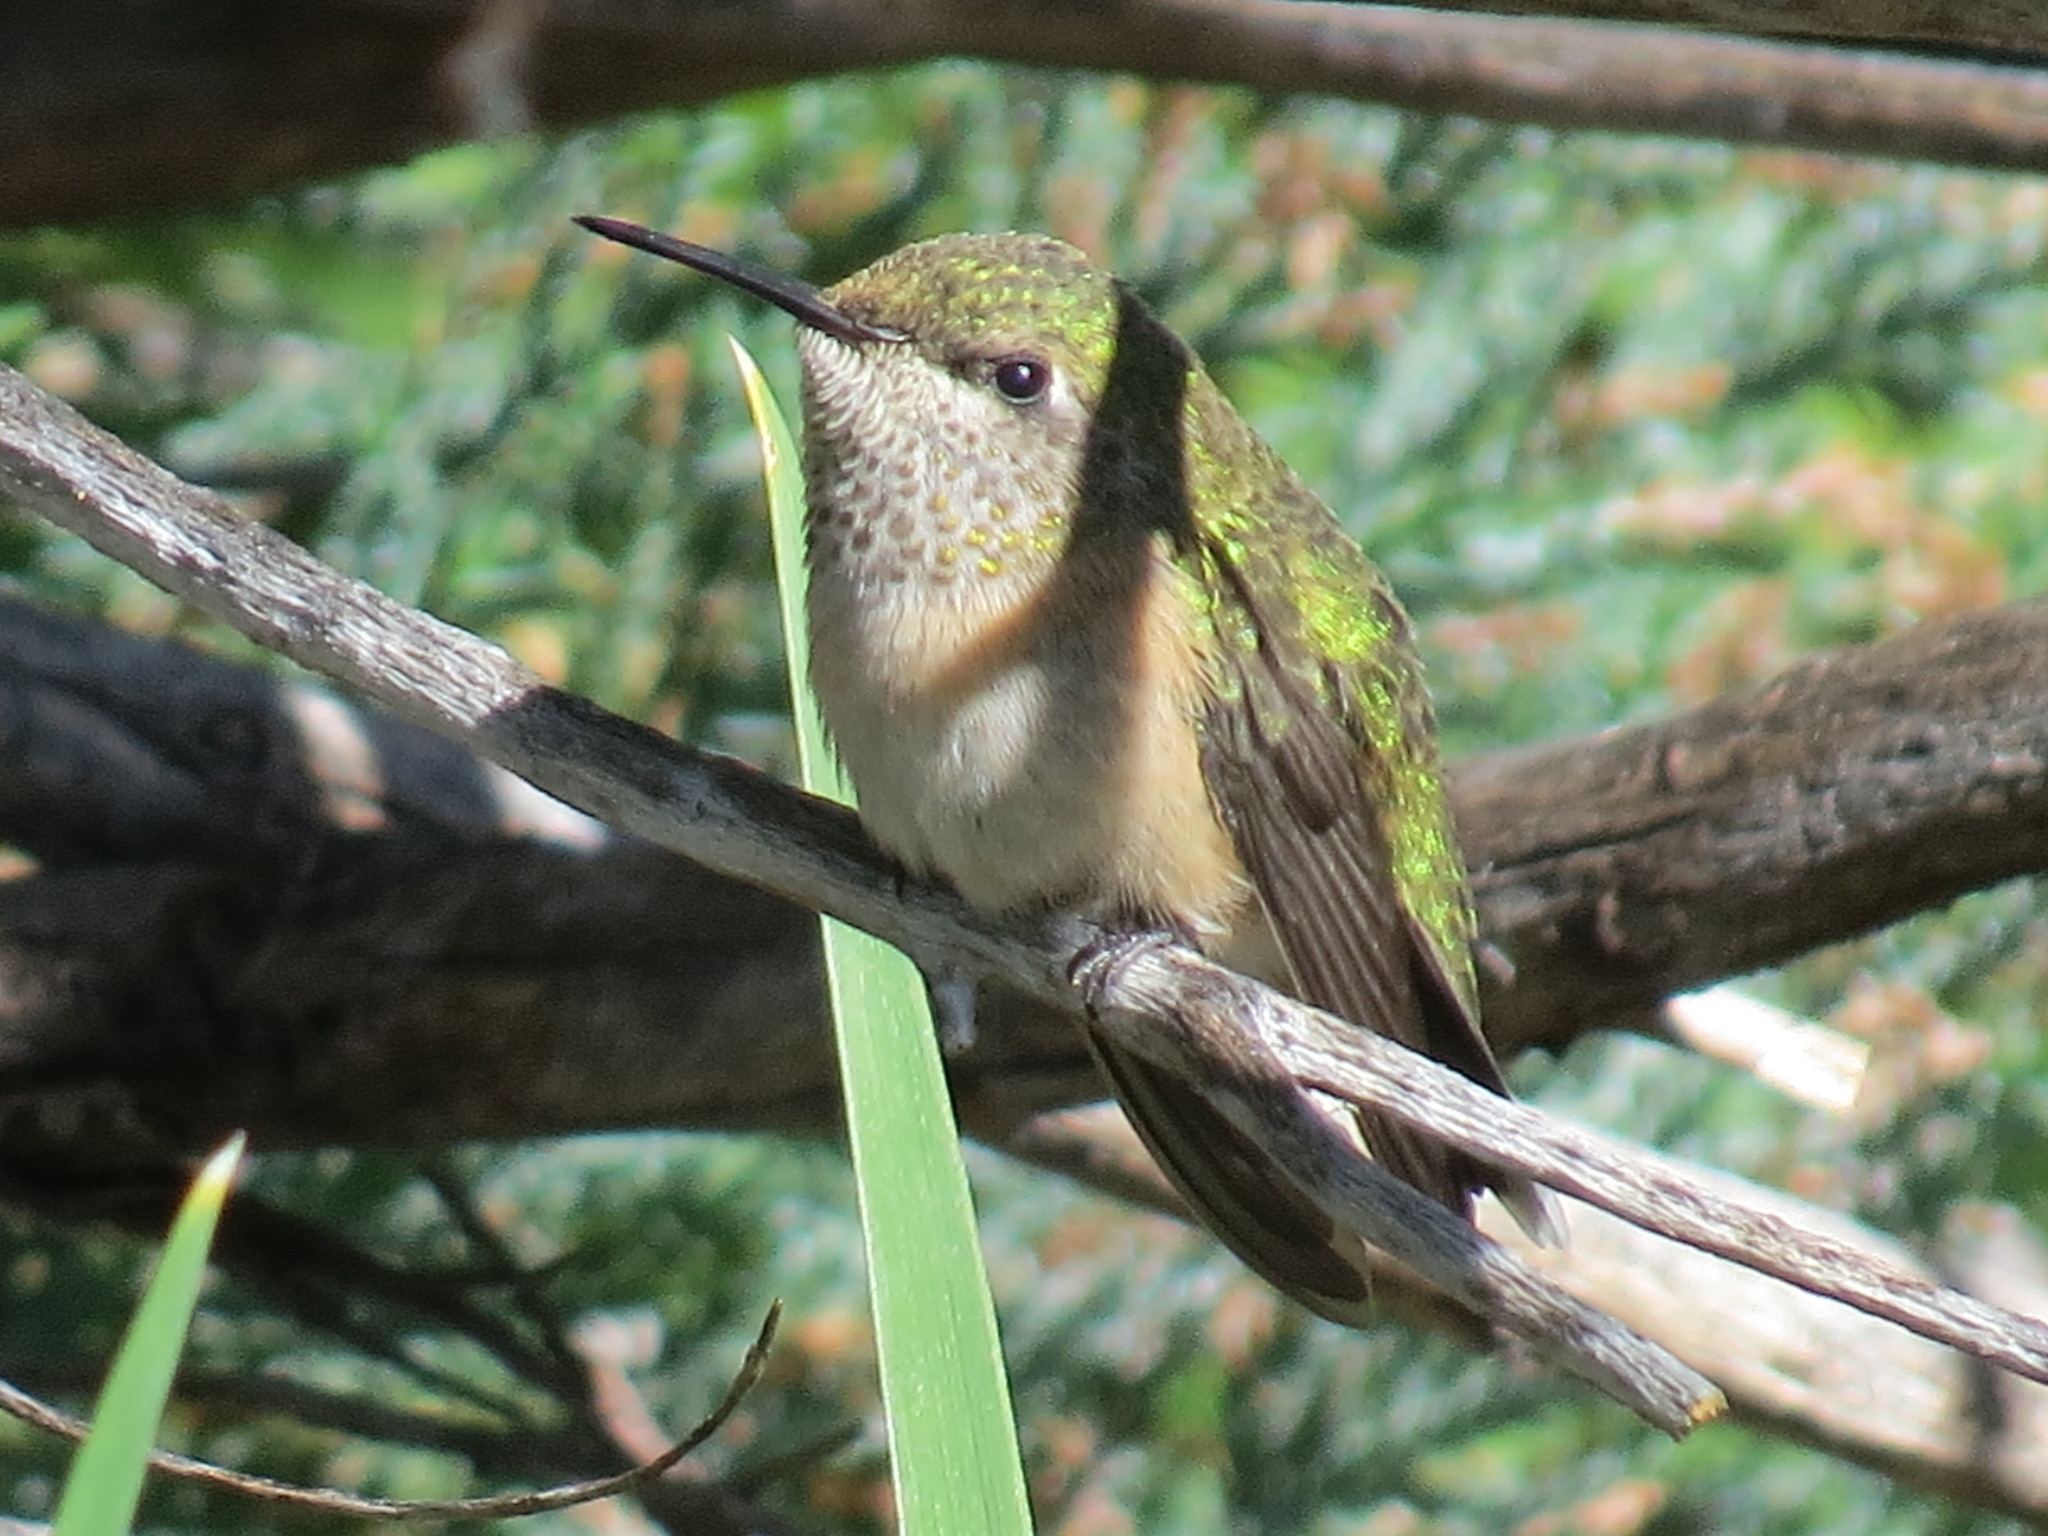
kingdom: Animalia
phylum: Chordata
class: Aves
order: Apodiformes
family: Trochilidae
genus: Selasphorus
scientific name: Selasphorus calliope
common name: Calliope hummingbird
